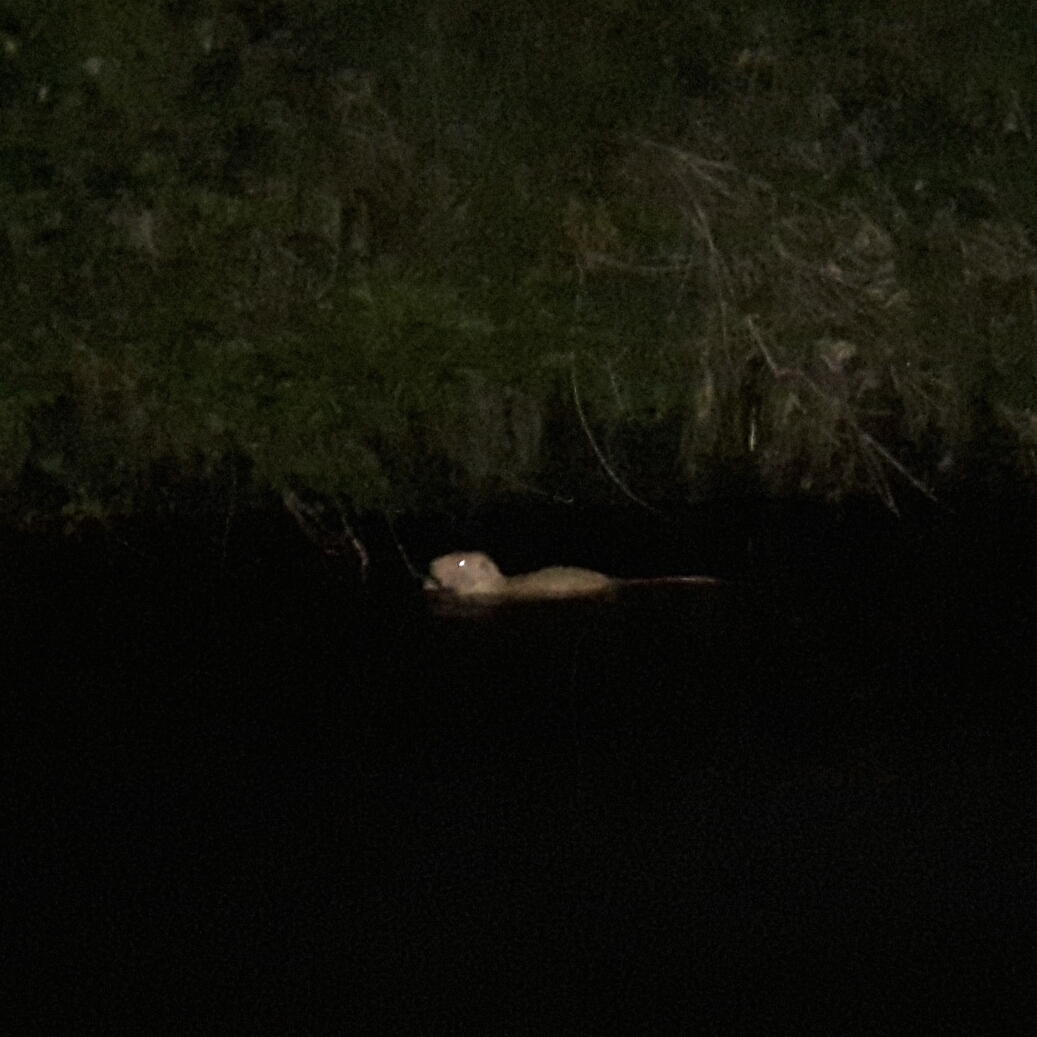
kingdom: Animalia
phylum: Chordata
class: Mammalia
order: Rodentia
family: Myocastoridae
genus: Myocastor
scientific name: Myocastor coypus
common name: Coypu
